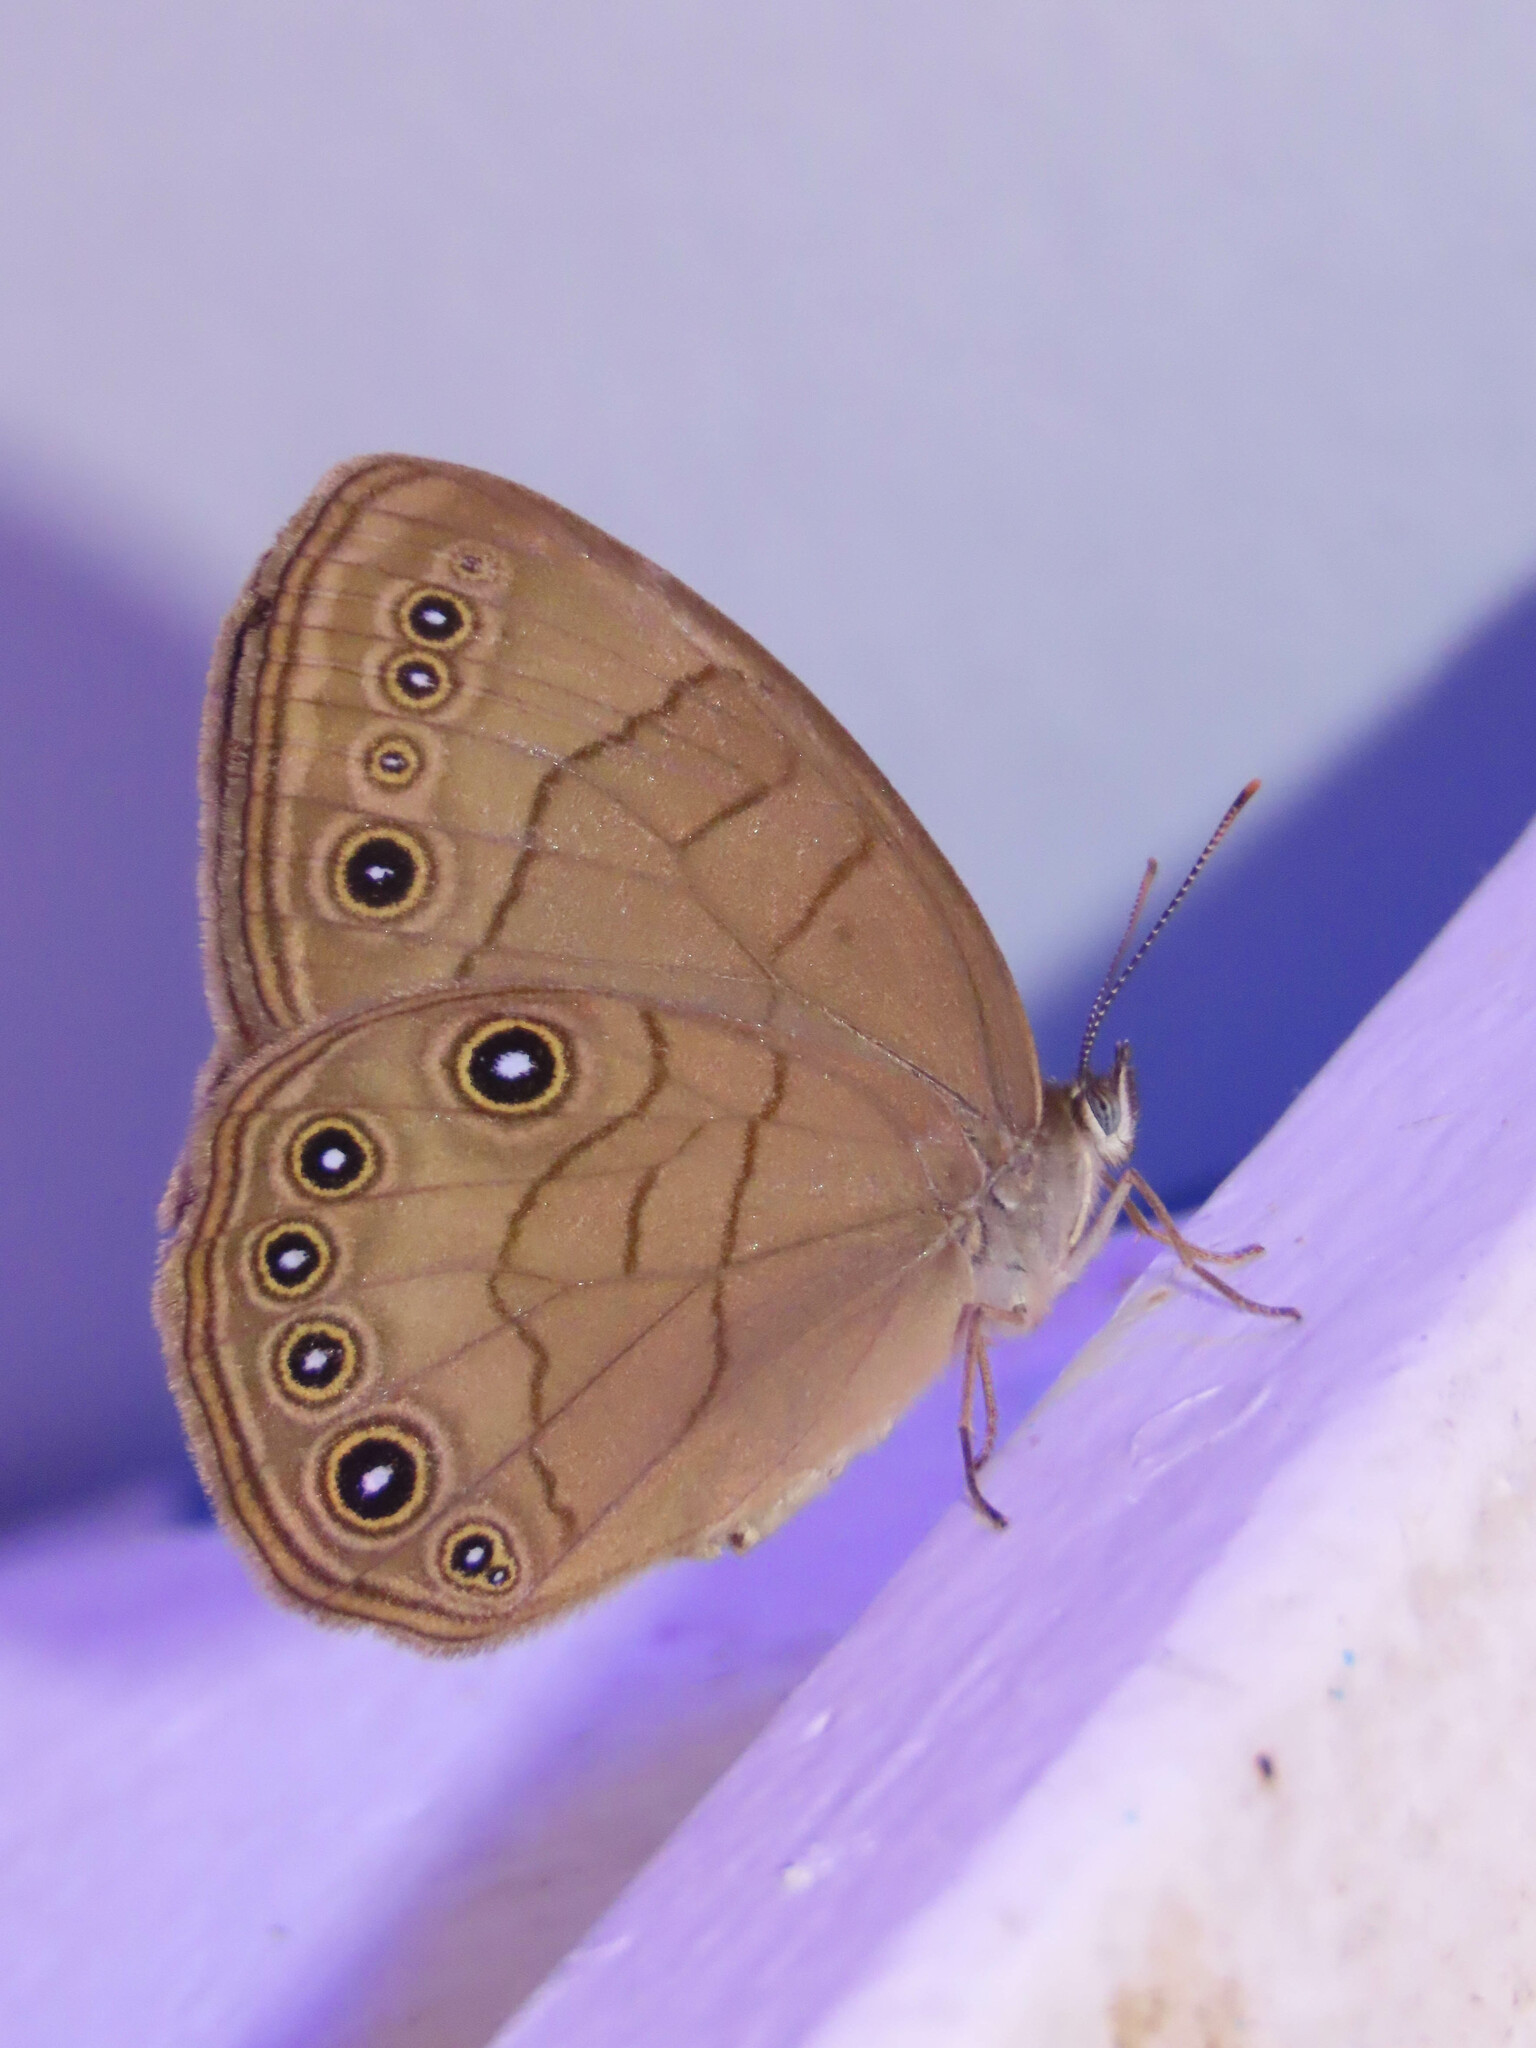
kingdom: Animalia
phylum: Arthropoda
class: Insecta
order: Lepidoptera
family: Nymphalidae
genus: Lethe
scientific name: Lethe eurydice
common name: Eyed brown
